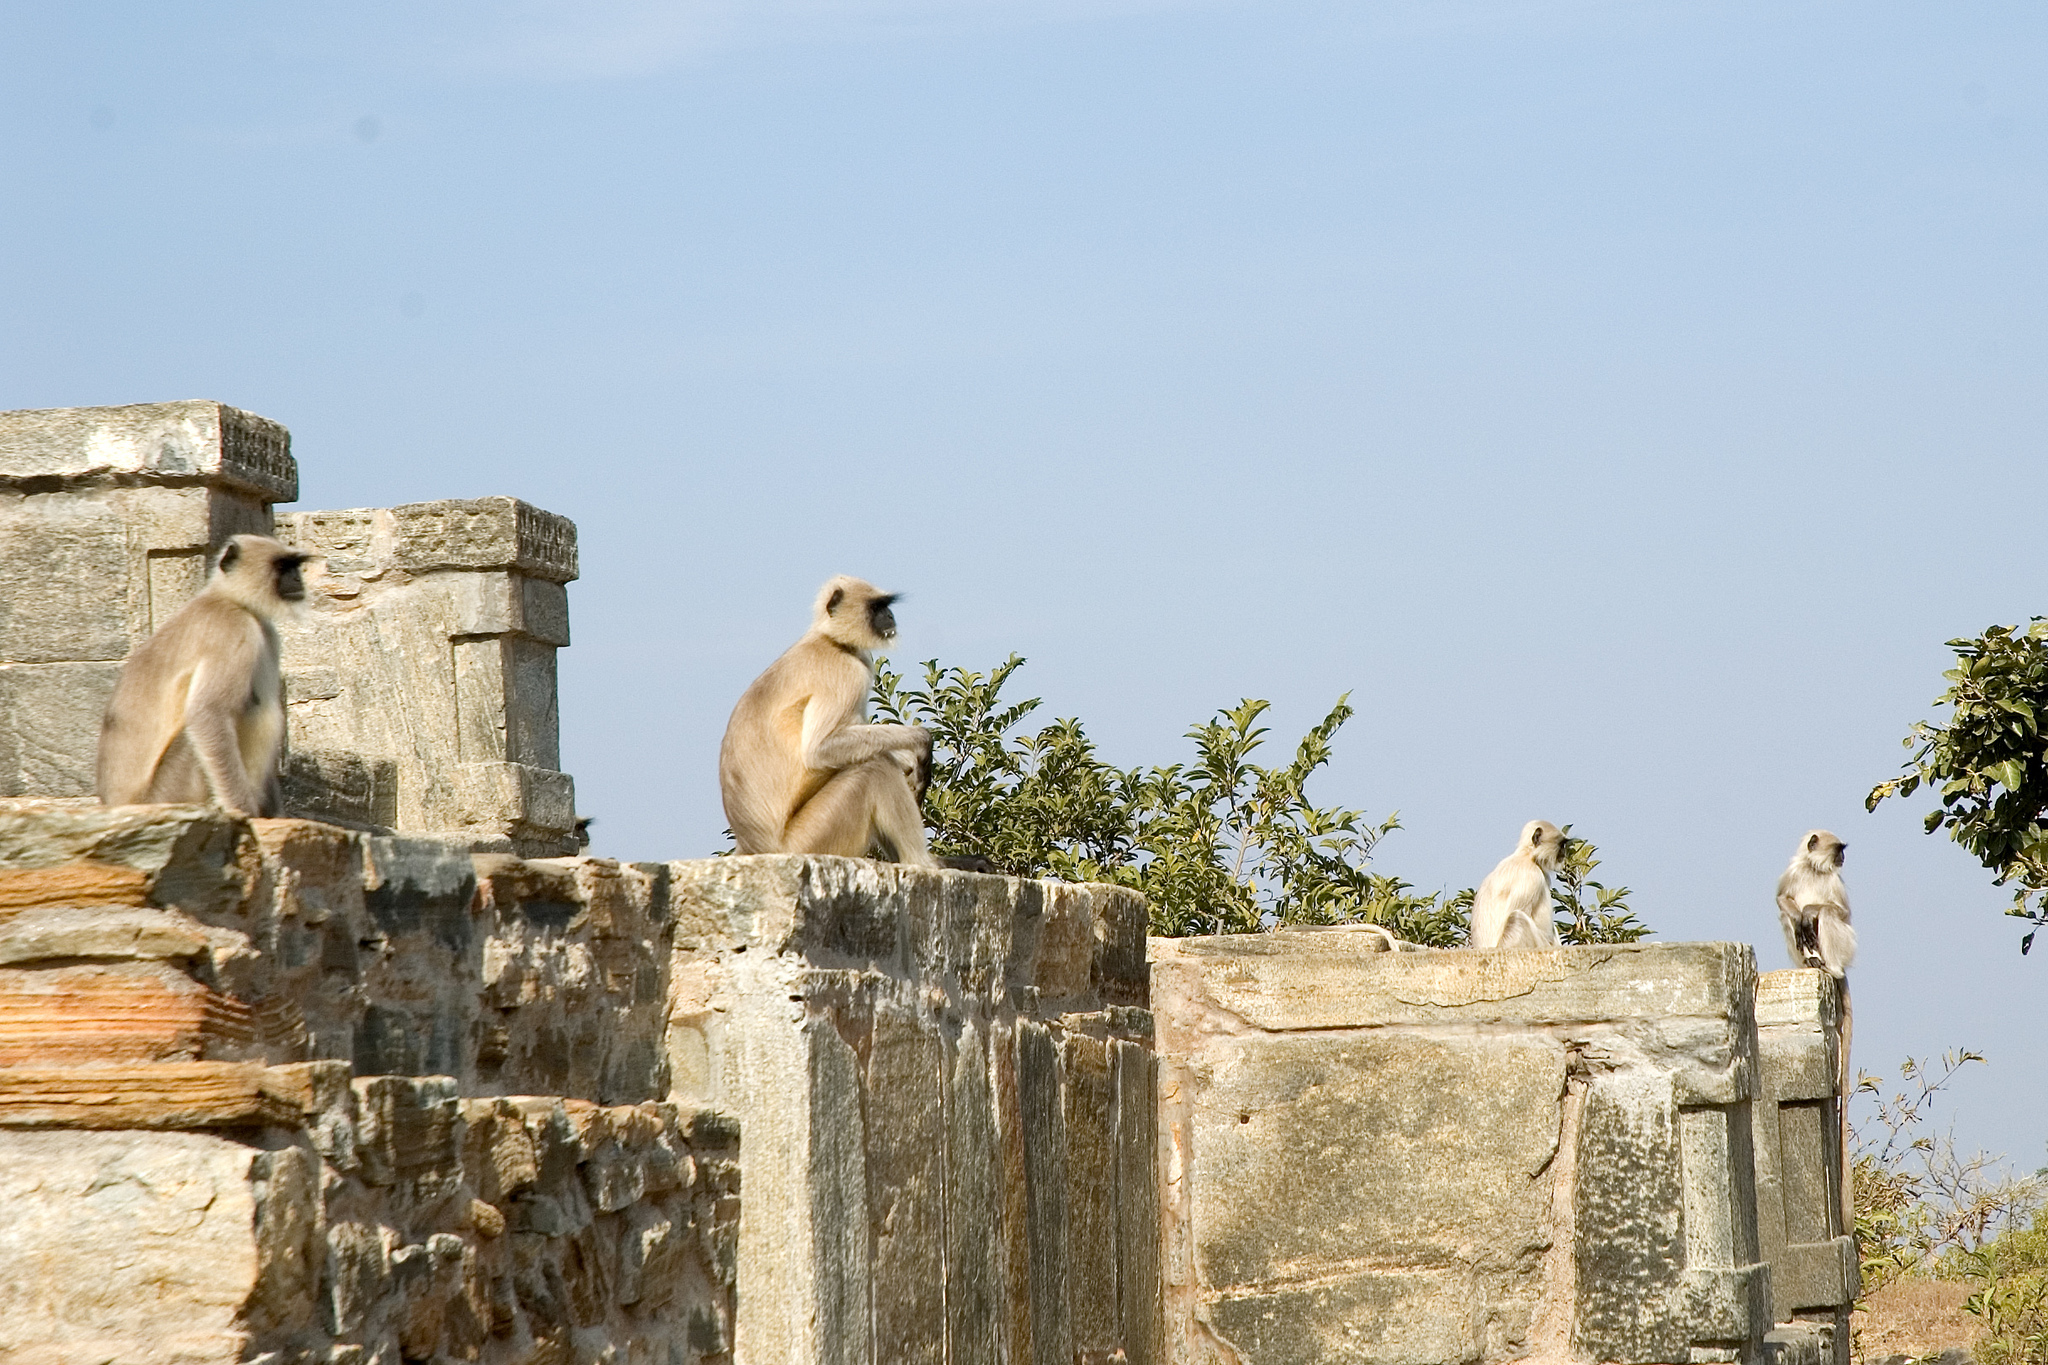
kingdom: Animalia
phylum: Chordata
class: Mammalia
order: Primates
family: Cercopithecidae
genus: Semnopithecus
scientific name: Semnopithecus entellus
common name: Northern plains gray langur
